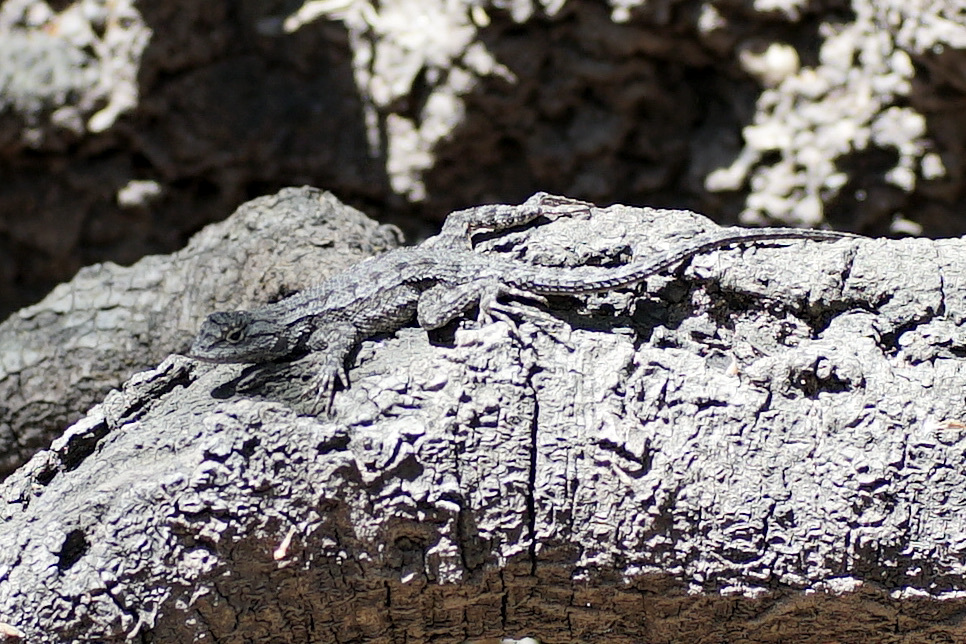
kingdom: Animalia
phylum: Chordata
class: Squamata
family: Phrynosomatidae
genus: Sceloporus
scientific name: Sceloporus occidentalis
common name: Western fence lizard
